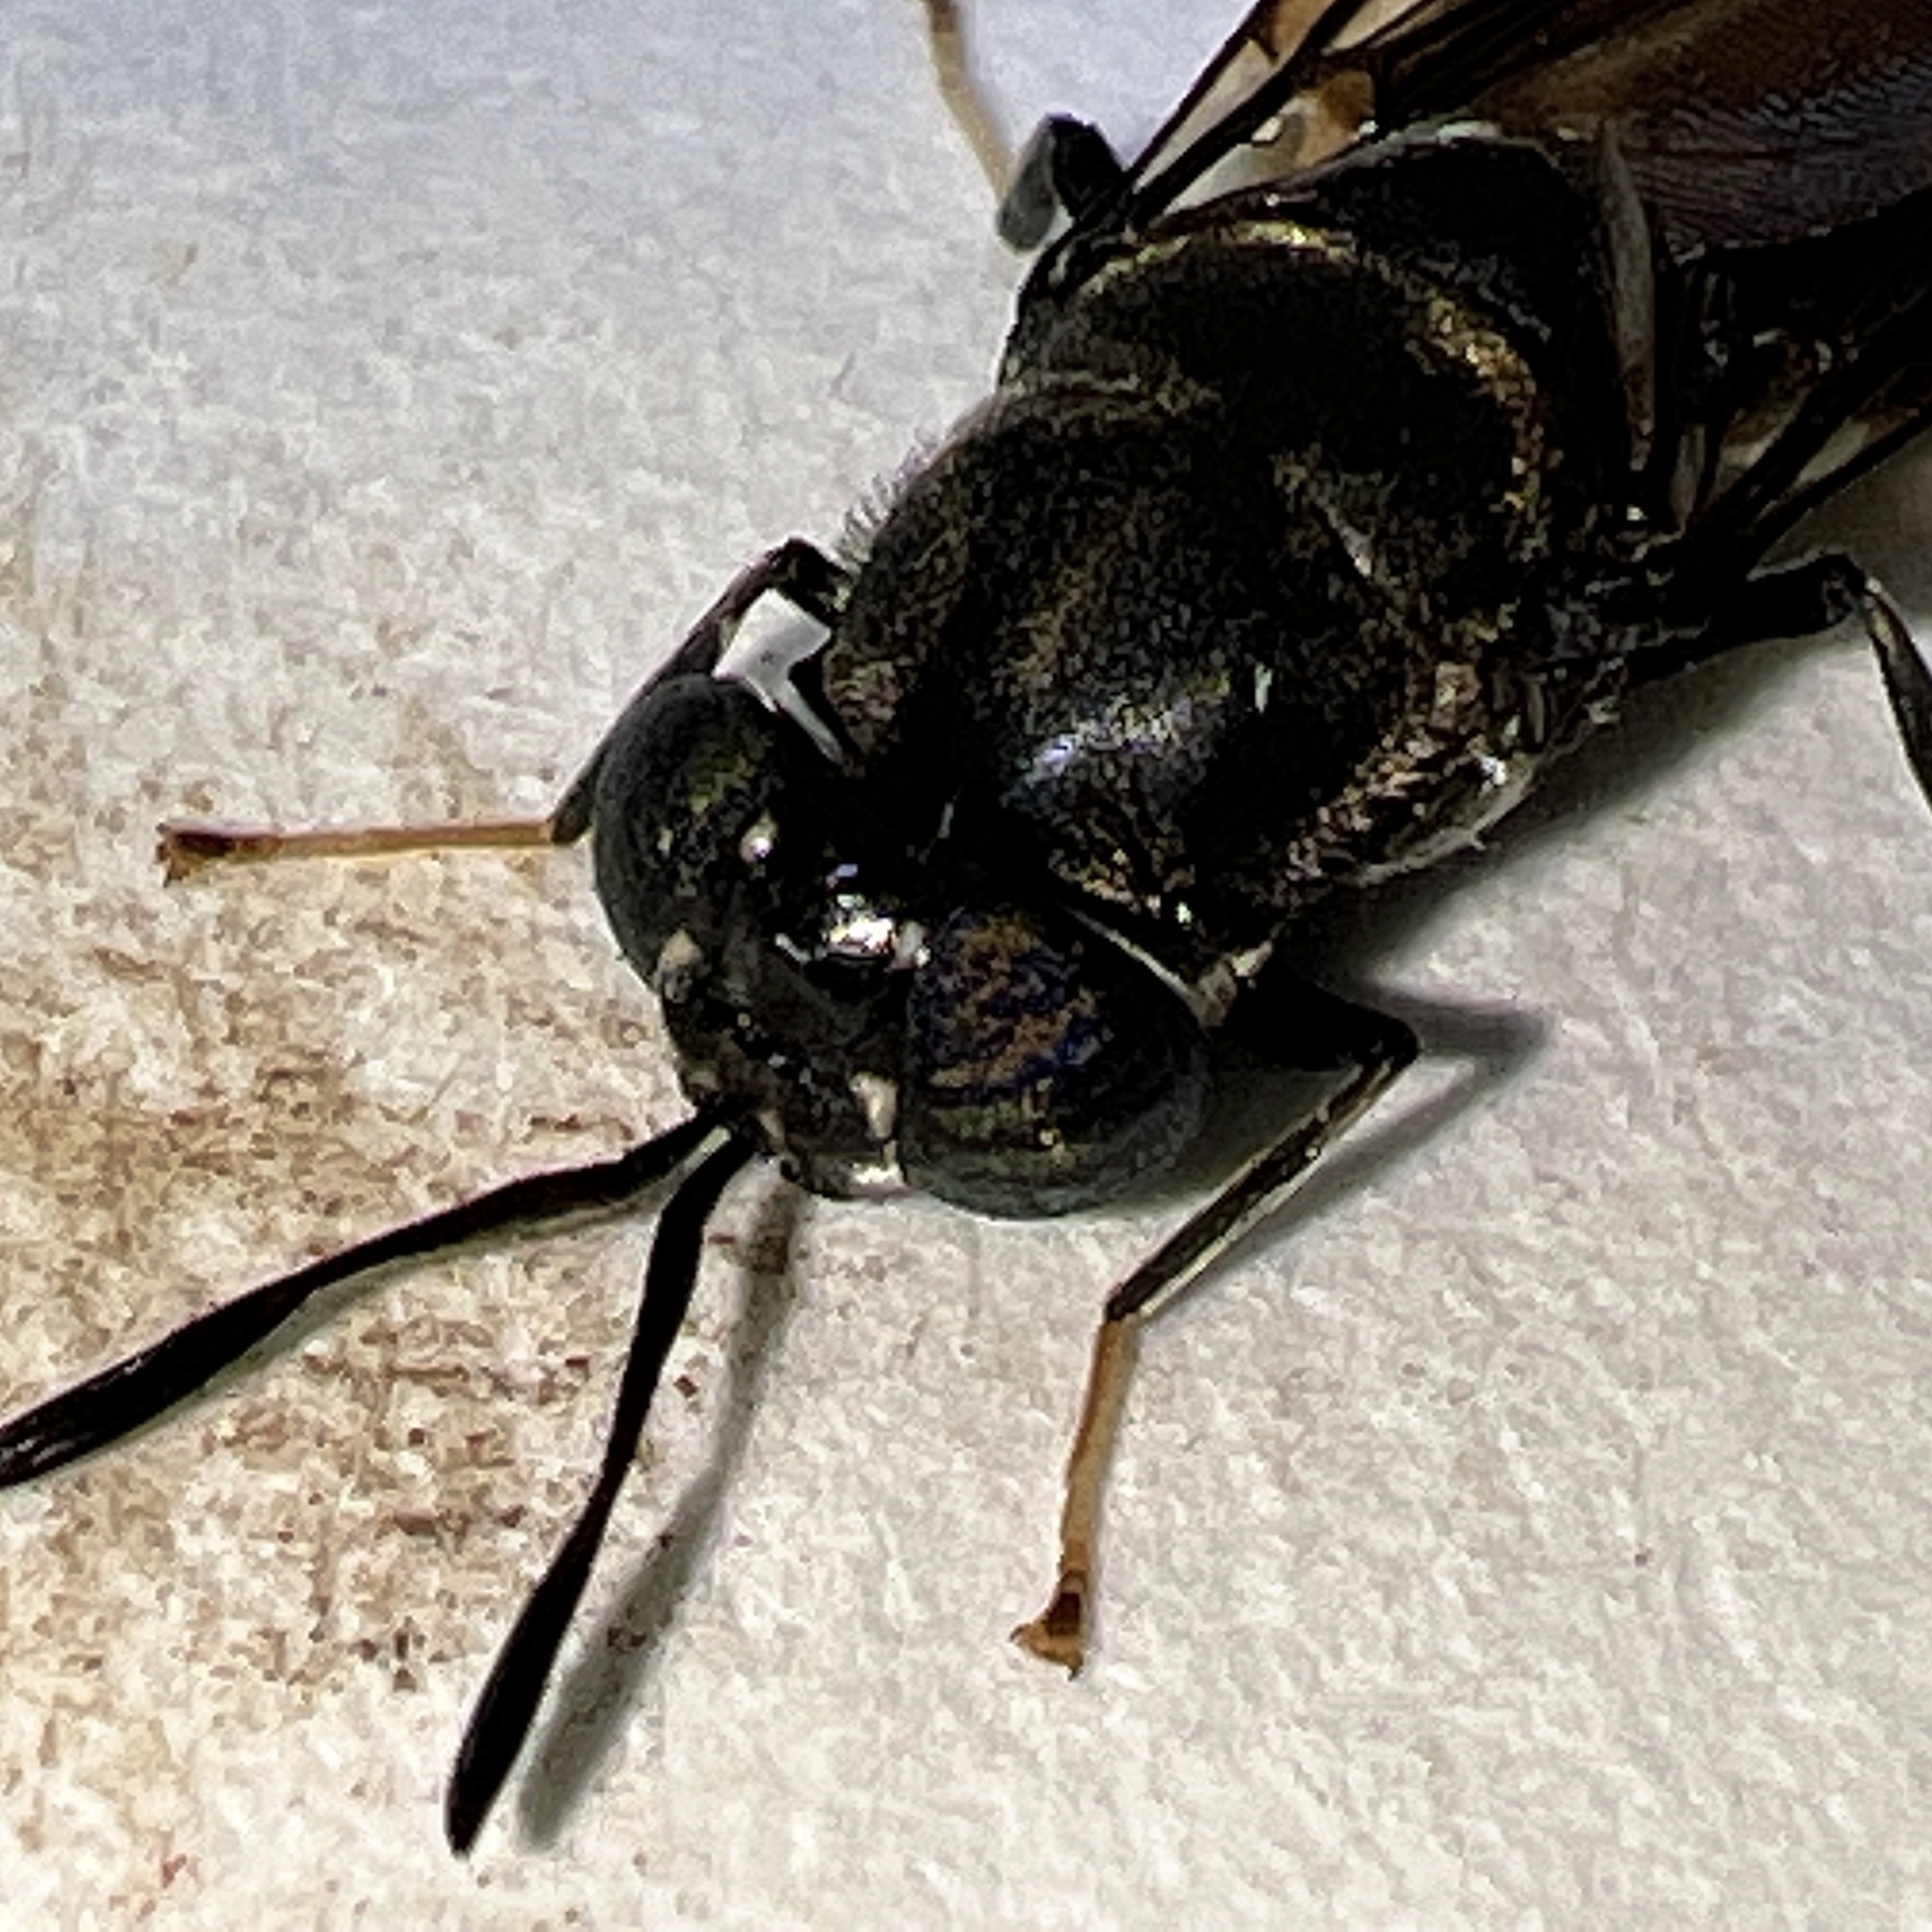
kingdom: Animalia
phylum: Arthropoda
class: Insecta
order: Diptera
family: Stratiomyidae
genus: Hermetia
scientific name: Hermetia illucens
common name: Black soldier fly
